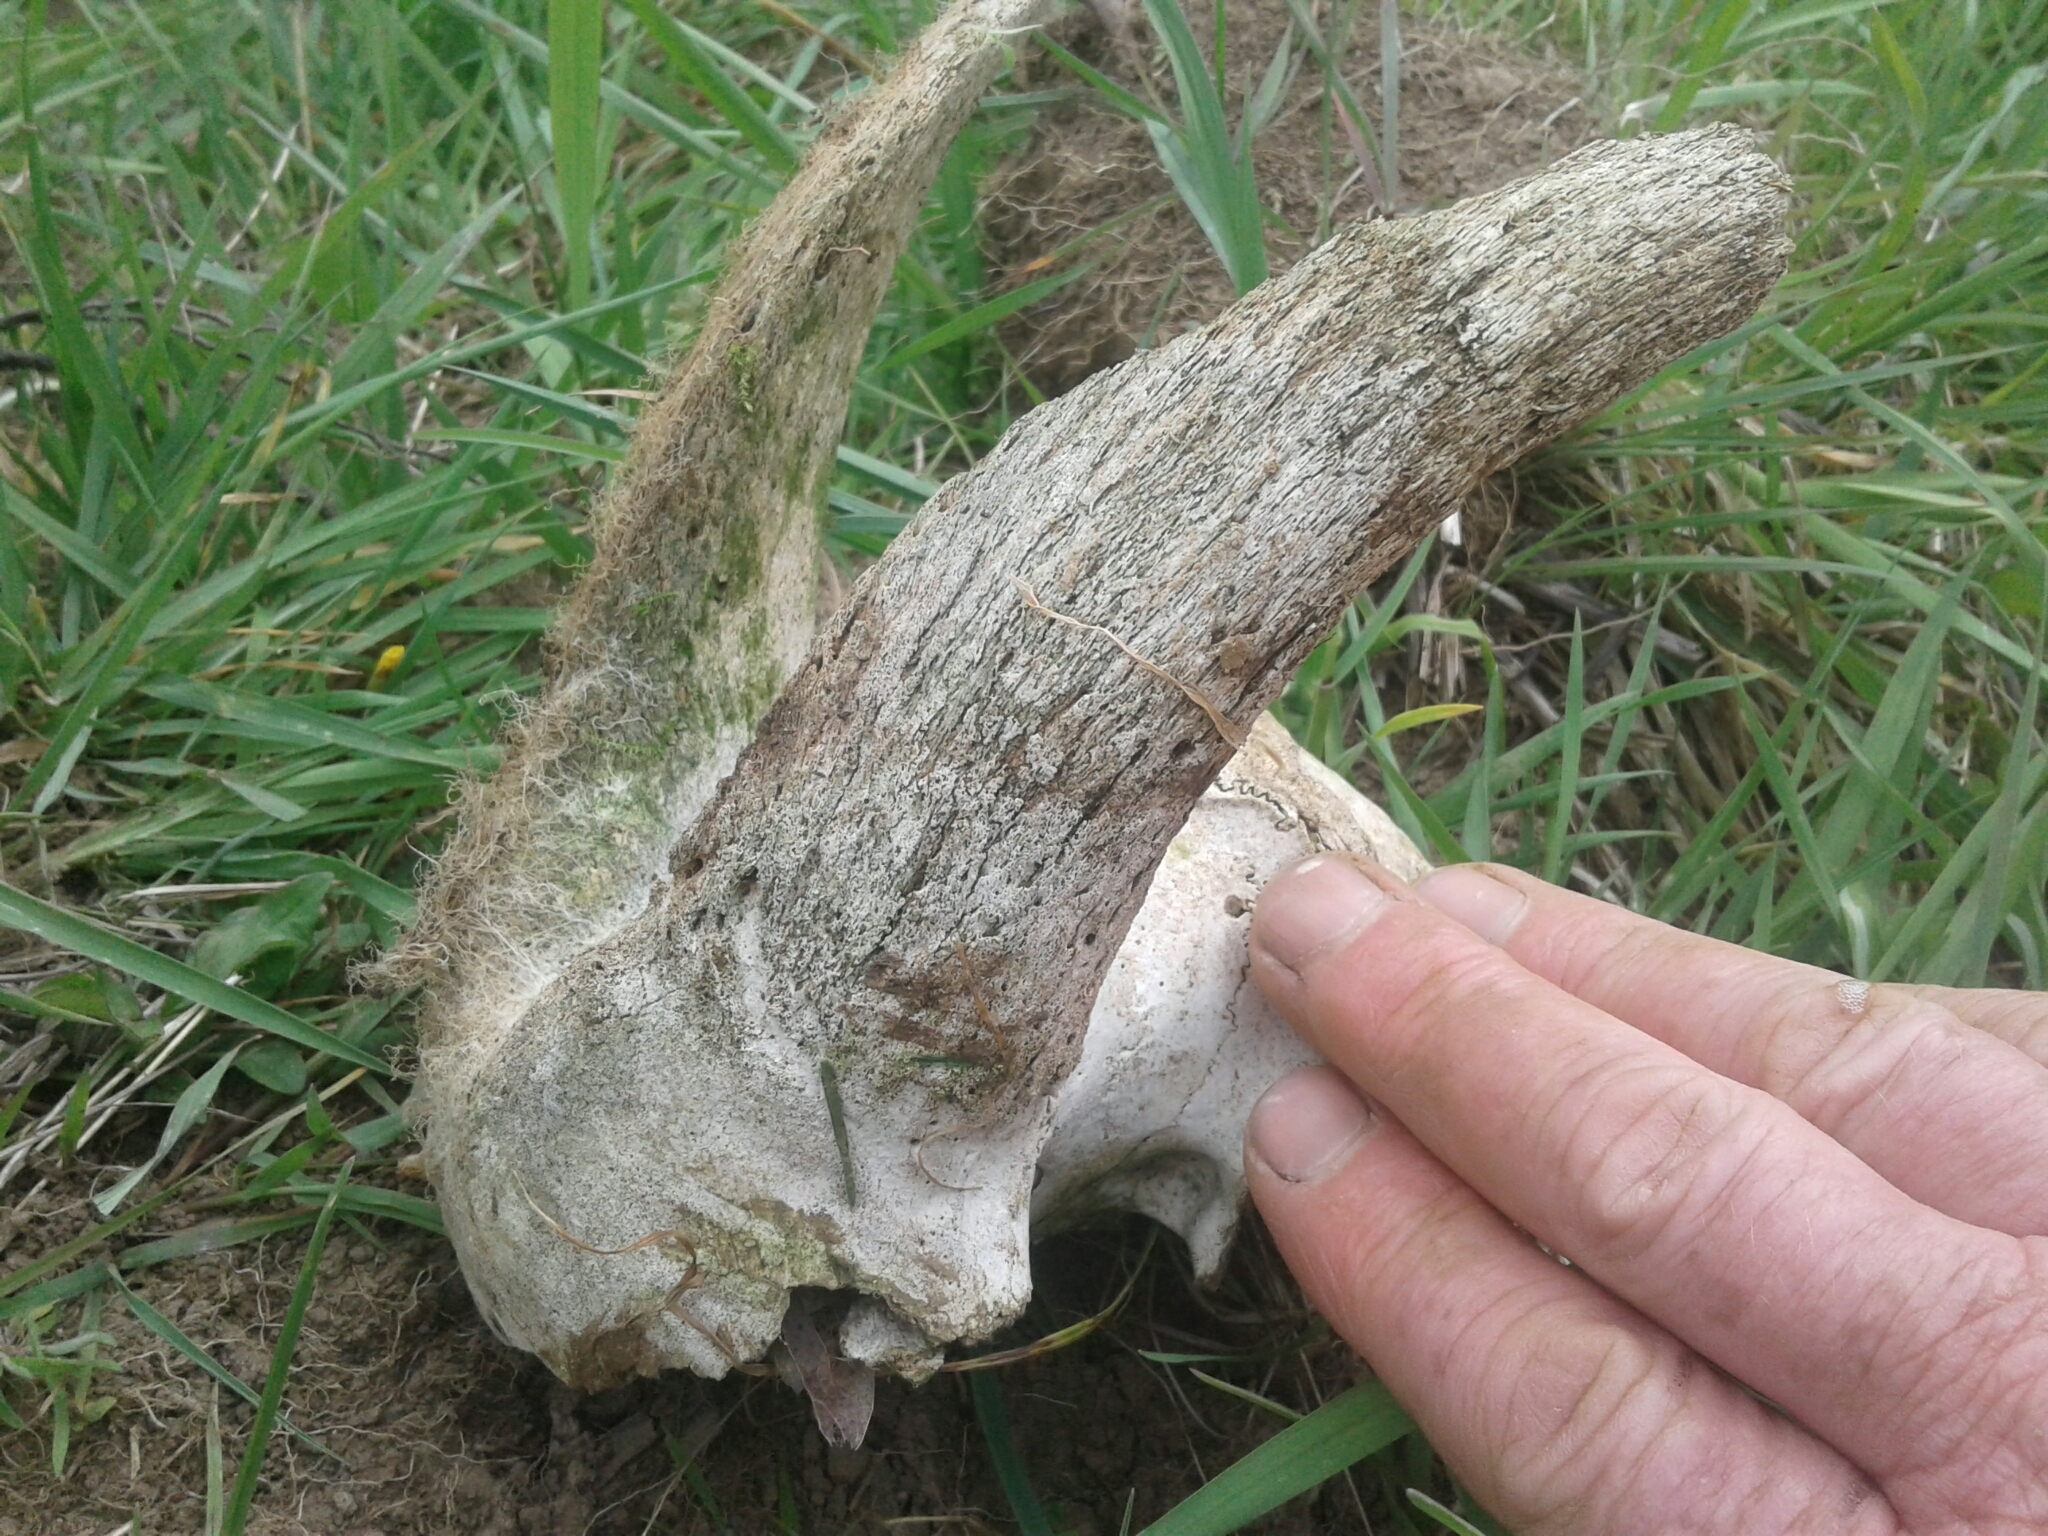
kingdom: Animalia
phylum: Chordata
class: Mammalia
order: Artiodactyla
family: Bovidae
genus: Capra
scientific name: Capra hircus
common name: Domestic goat
